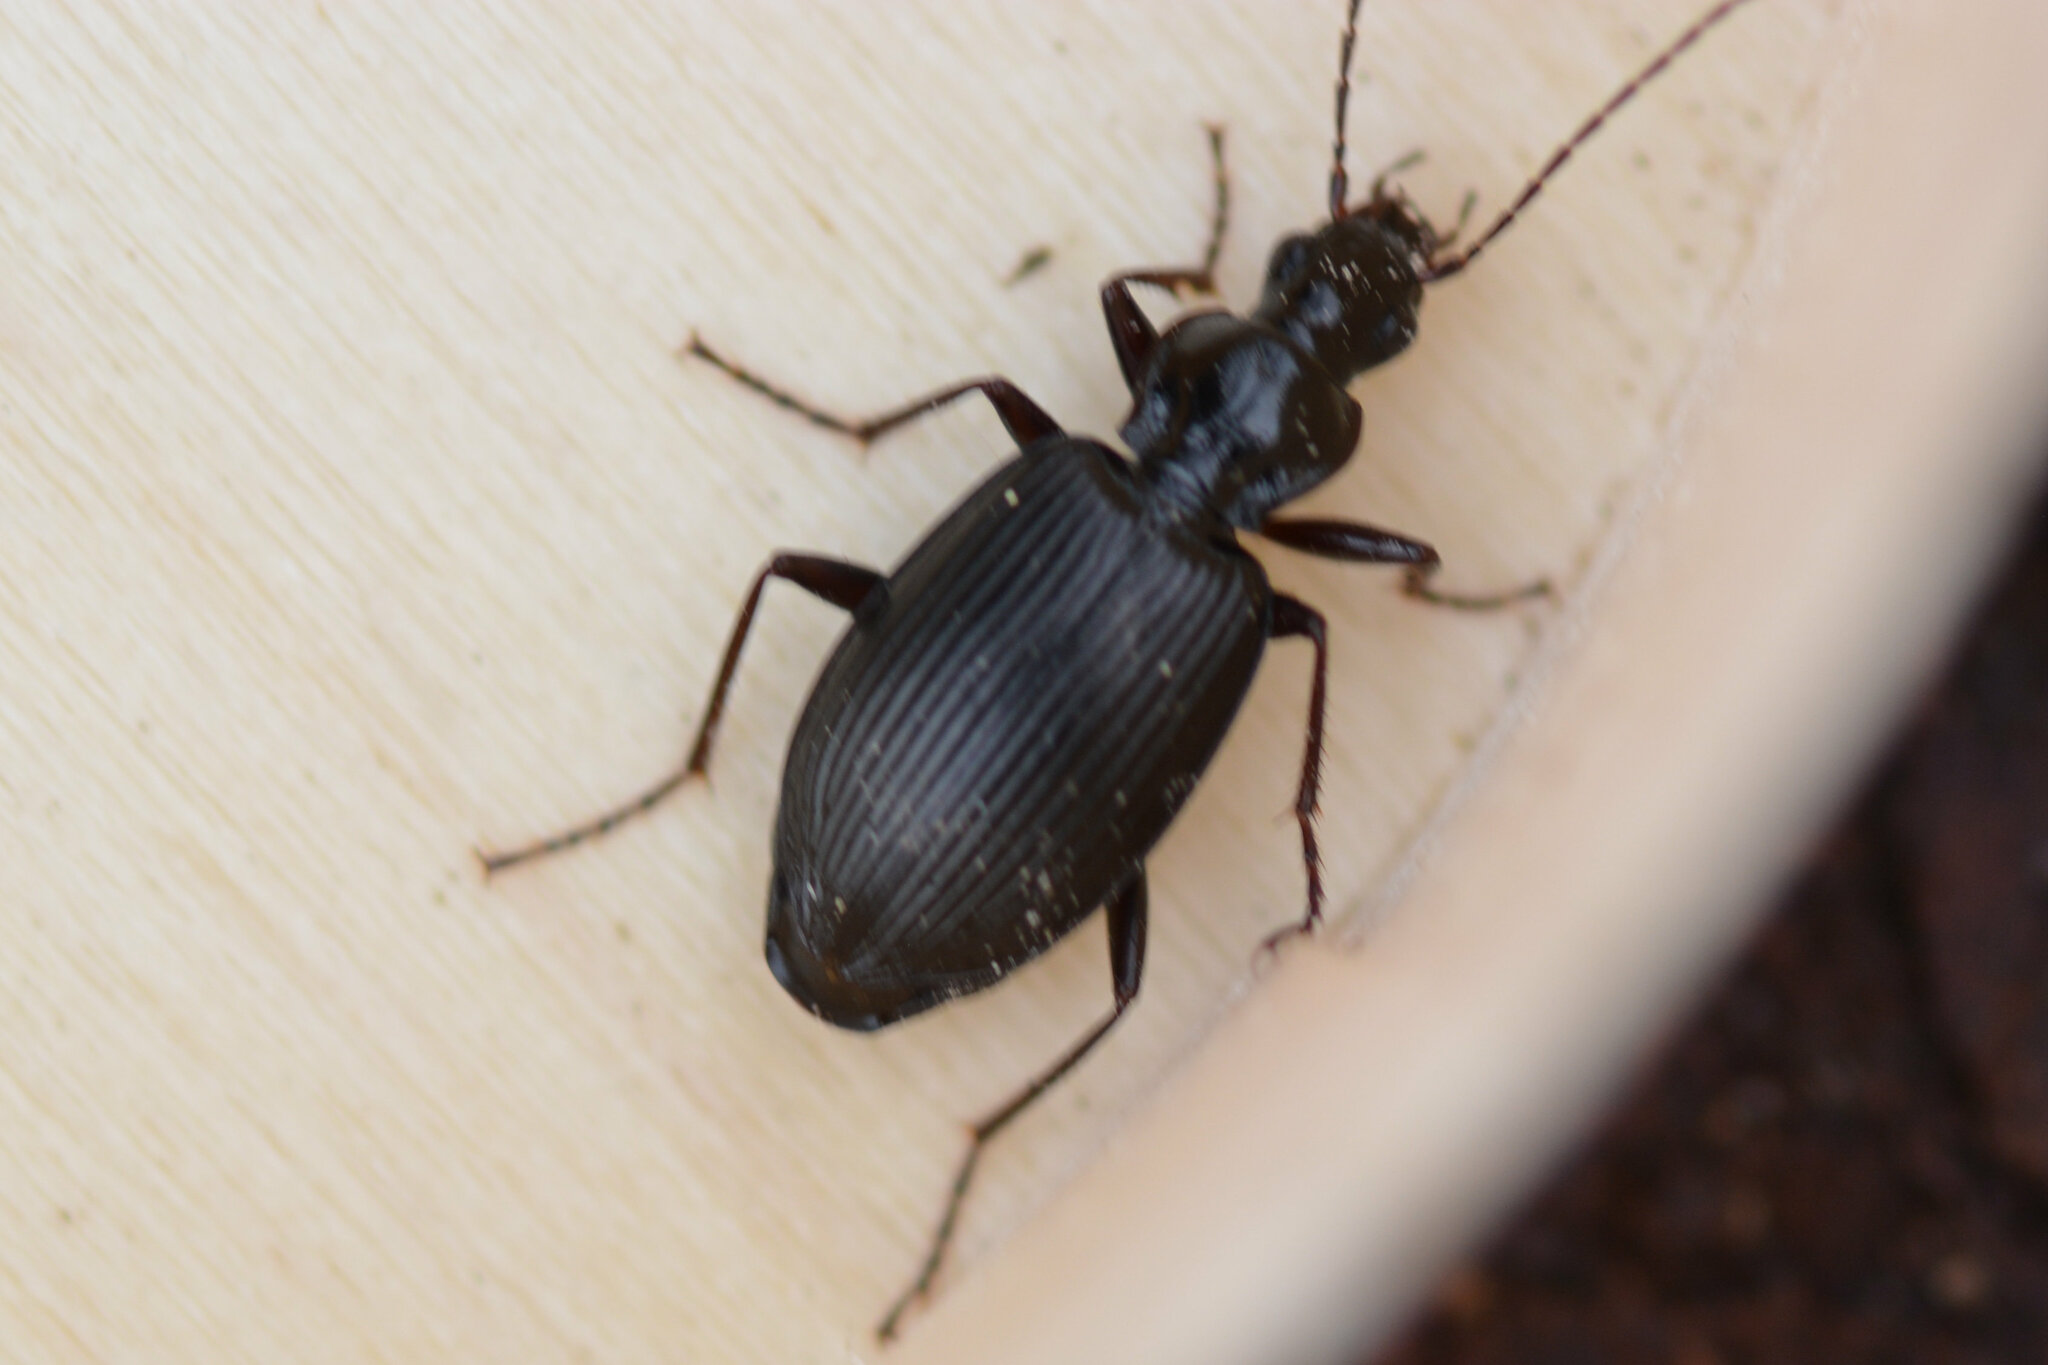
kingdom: Animalia
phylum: Arthropoda
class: Insecta
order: Coleoptera
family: Carabidae
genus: Platynus
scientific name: Platynus assimilis
